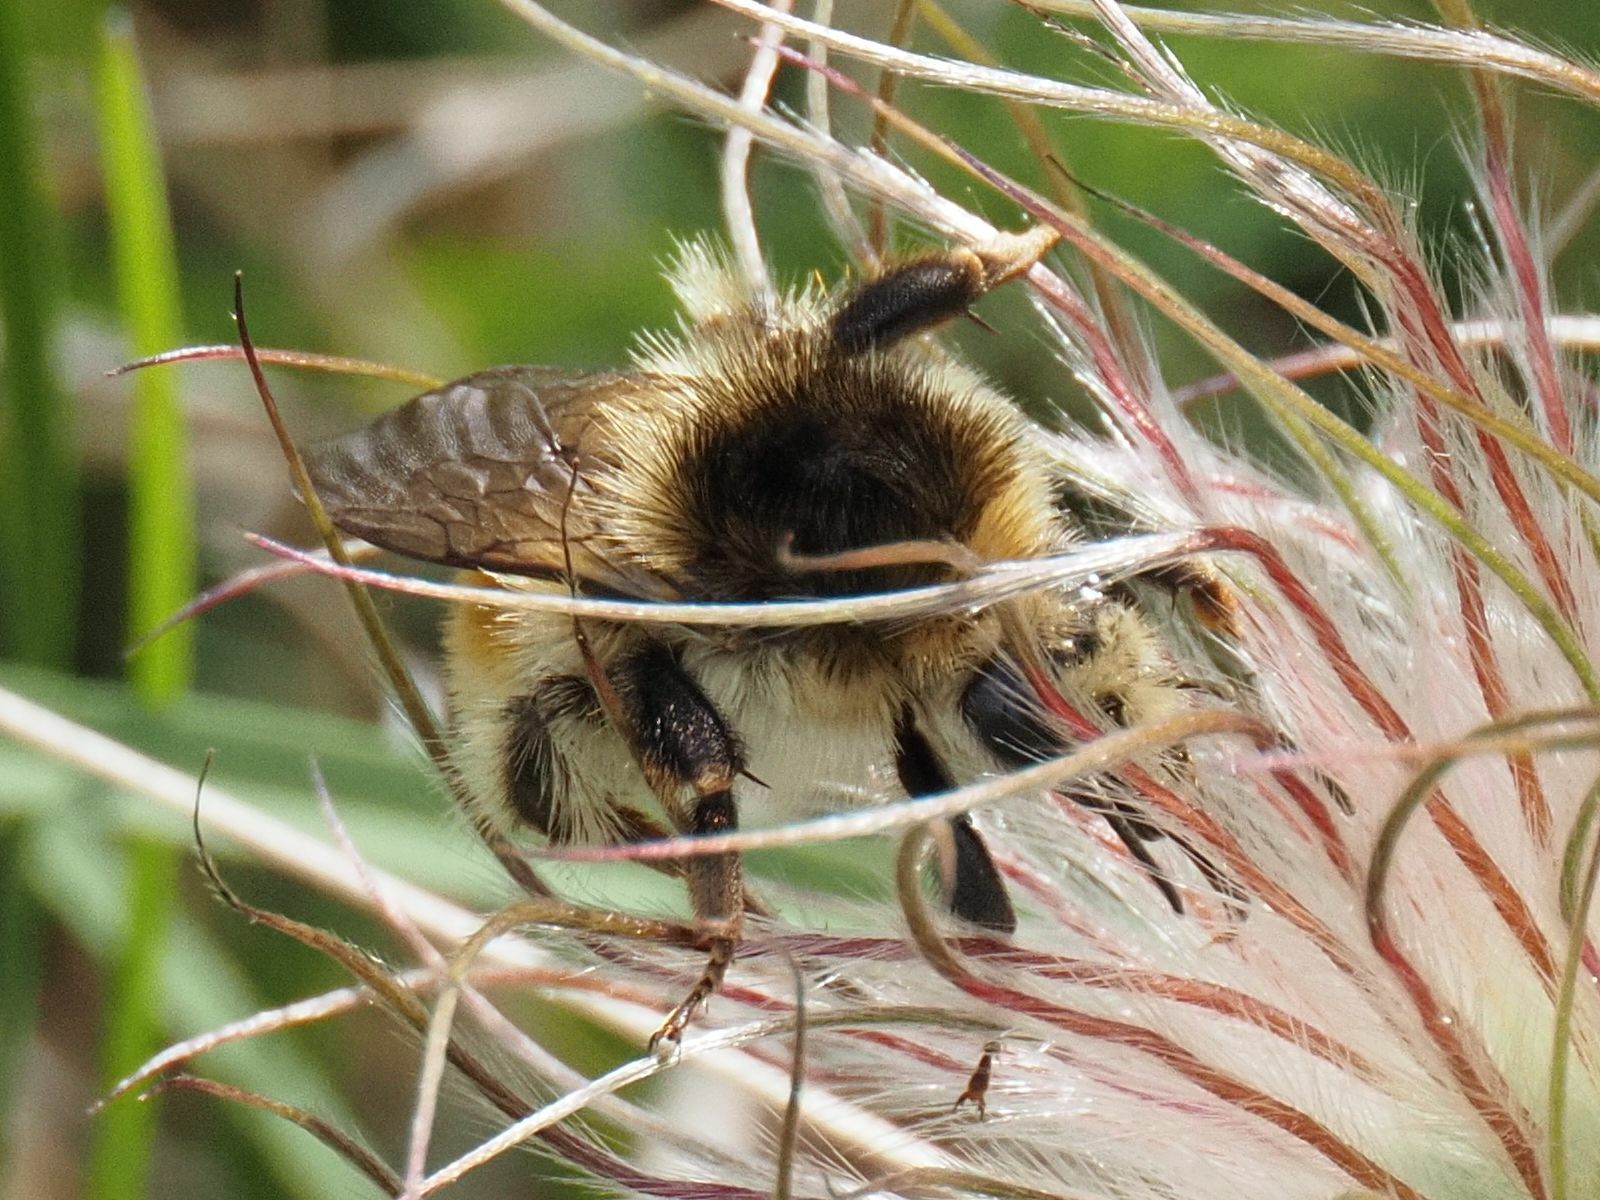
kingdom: Animalia
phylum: Arthropoda
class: Insecta
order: Hymenoptera
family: Apidae
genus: Bombus
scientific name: Bombus humilis
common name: Brown-banded carder-bee
